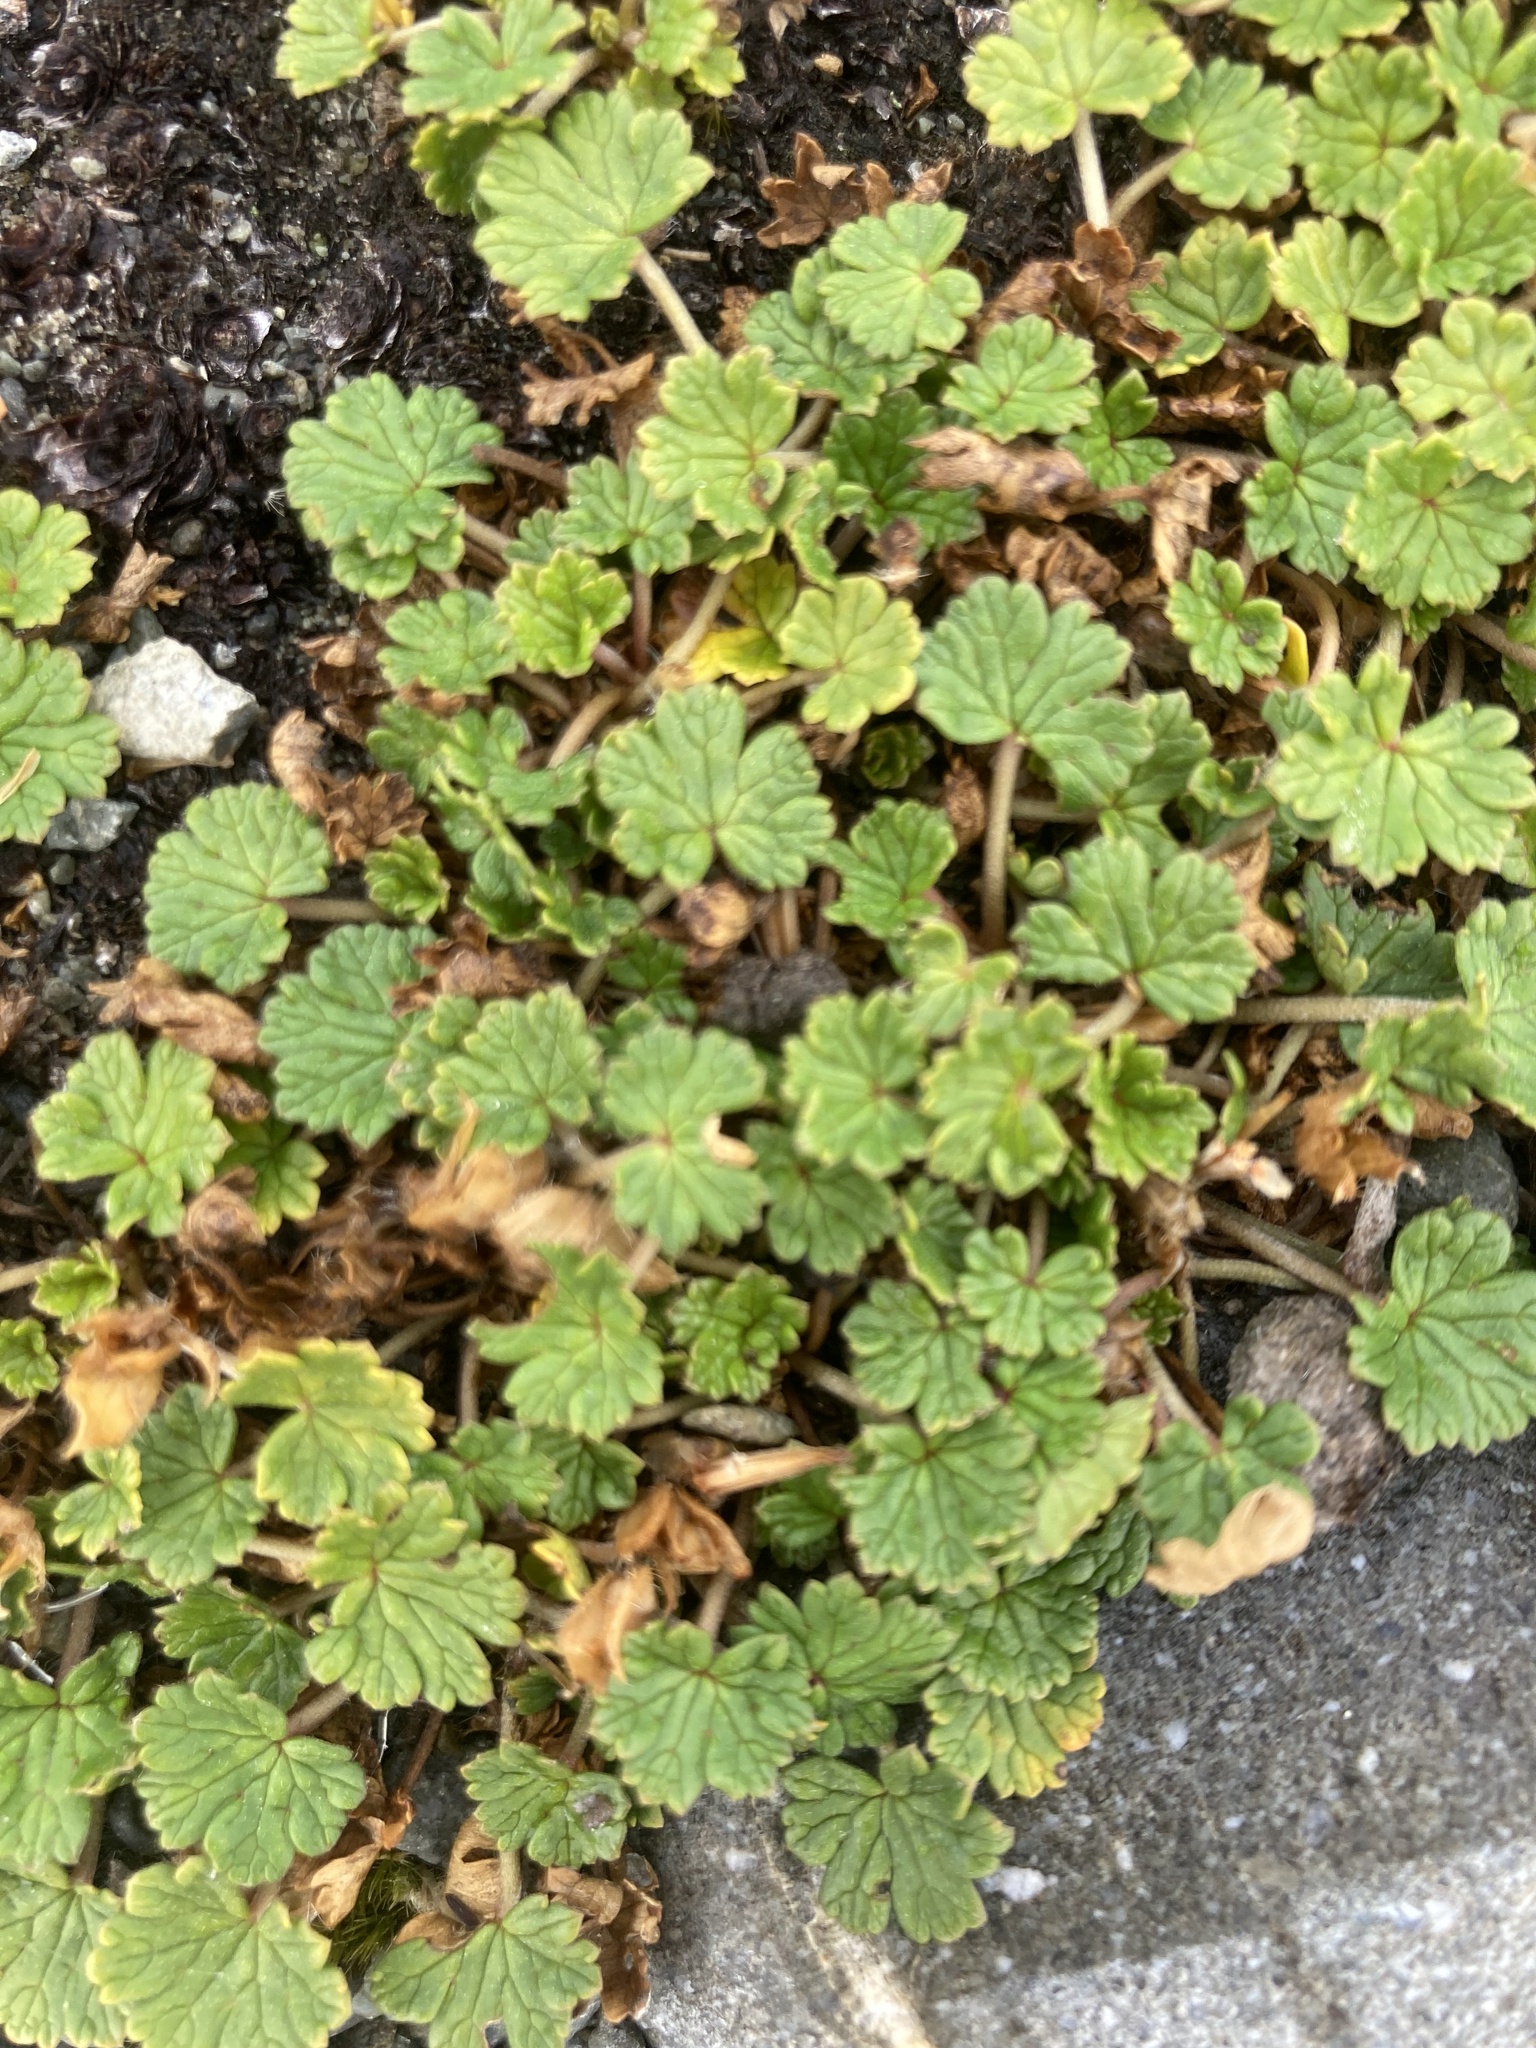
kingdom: Plantae
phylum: Tracheophyta
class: Magnoliopsida
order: Geraniales
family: Geraniaceae
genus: Geranium
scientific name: Geranium brevicaule
